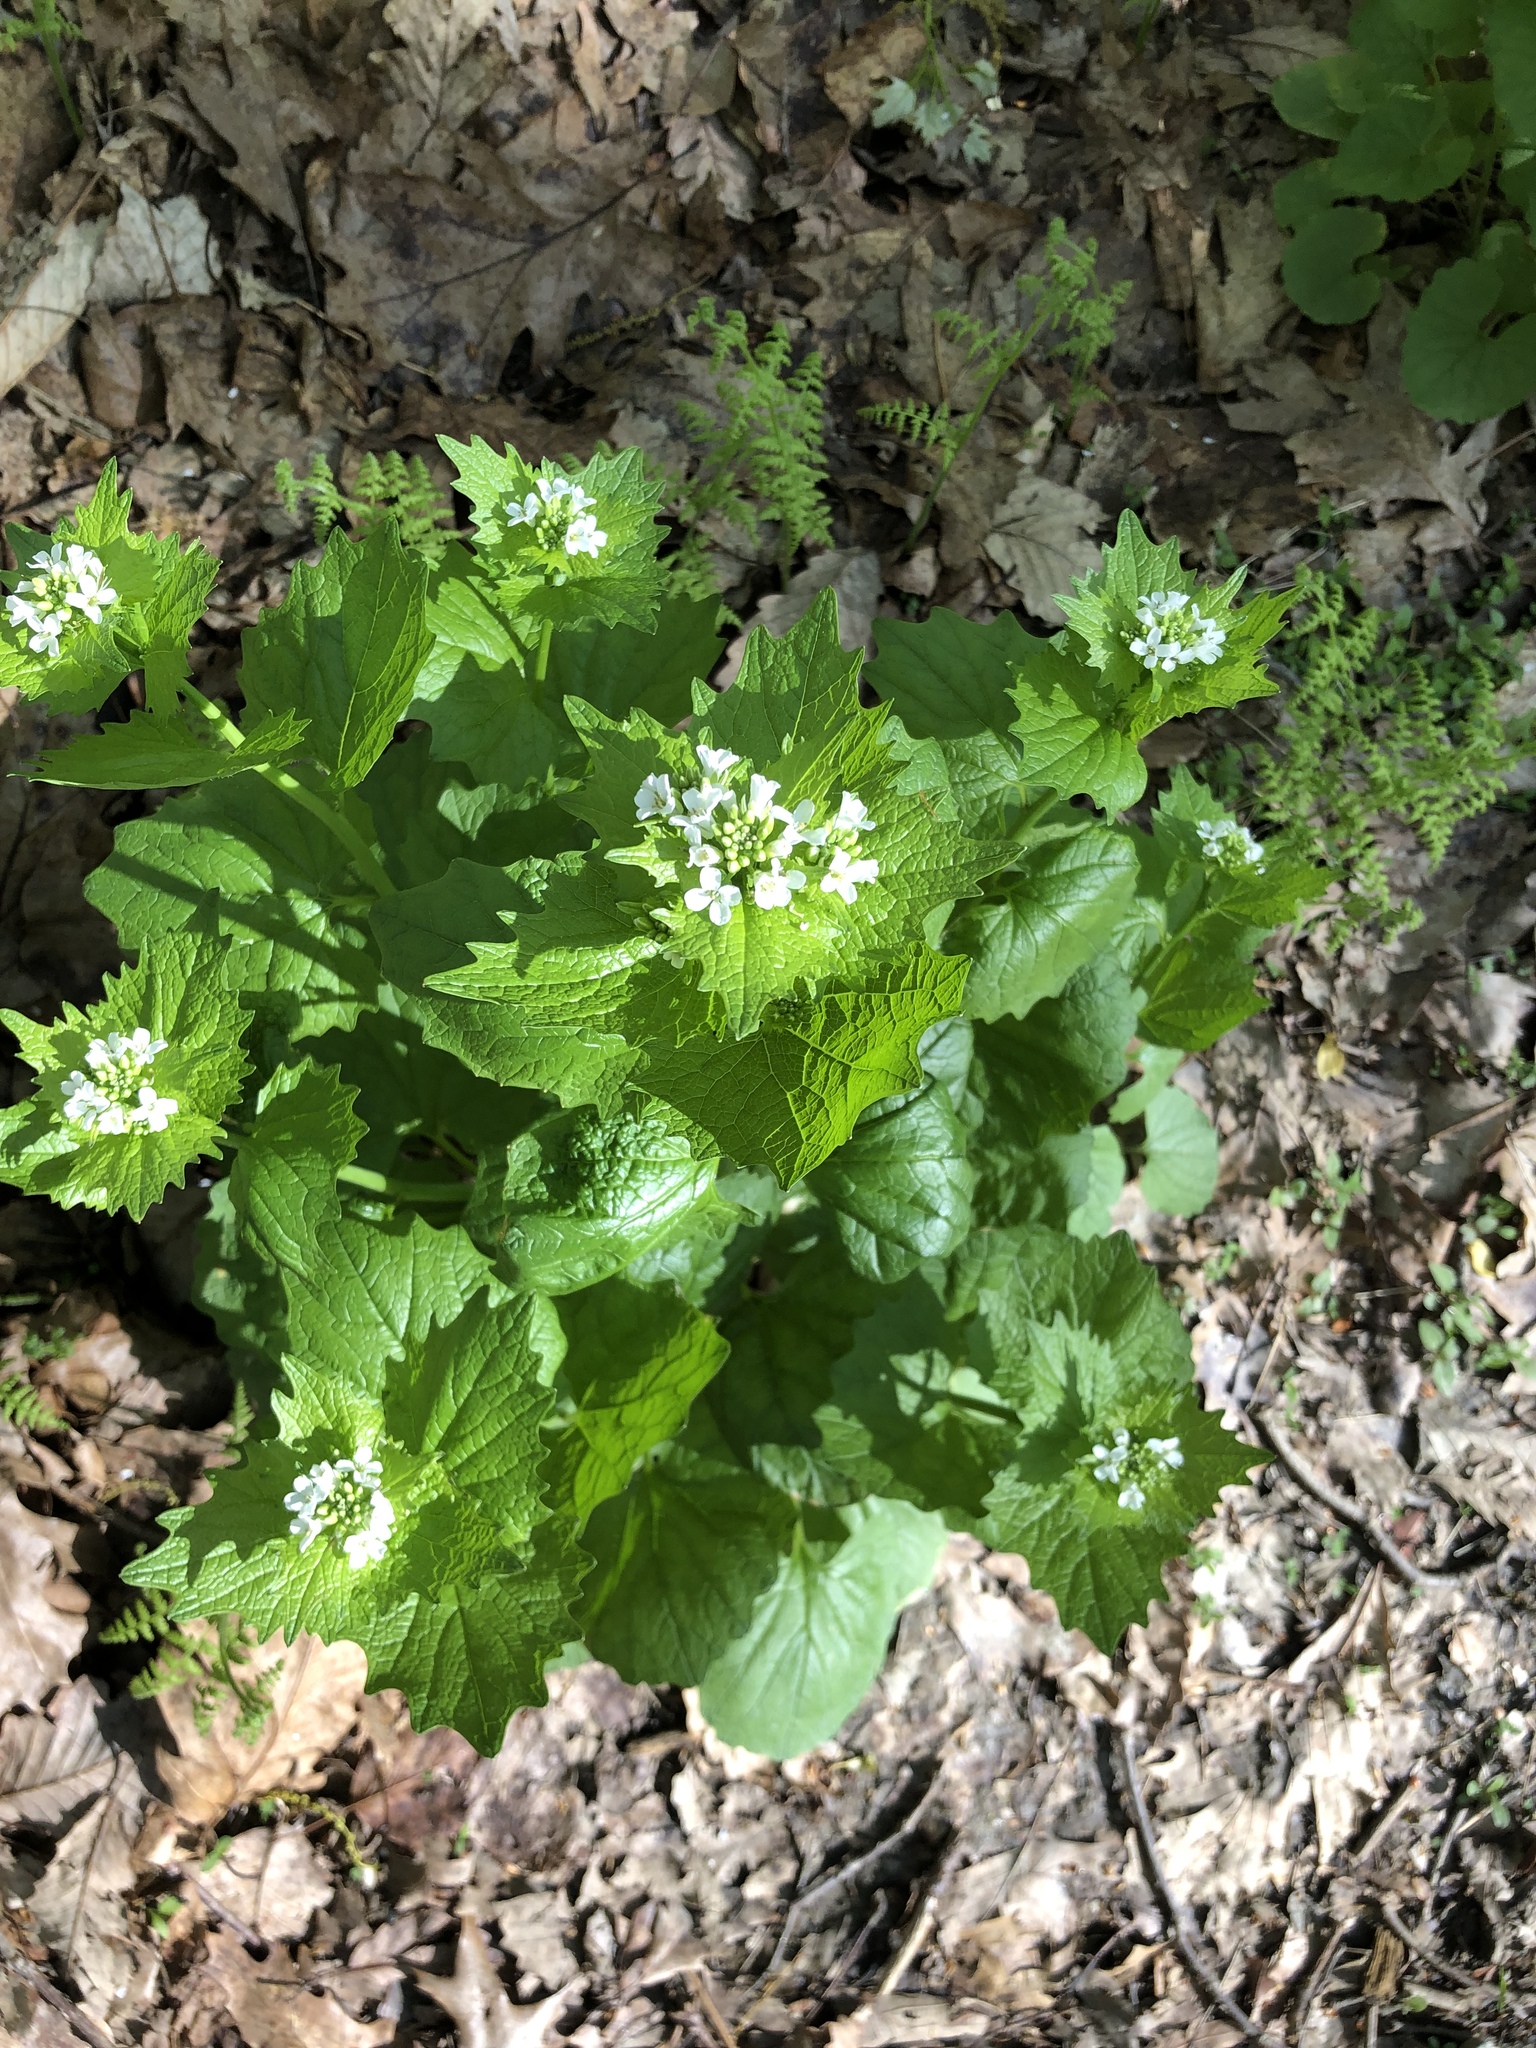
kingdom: Plantae
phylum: Tracheophyta
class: Magnoliopsida
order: Brassicales
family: Brassicaceae
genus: Alliaria
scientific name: Alliaria petiolata
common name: Garlic mustard
